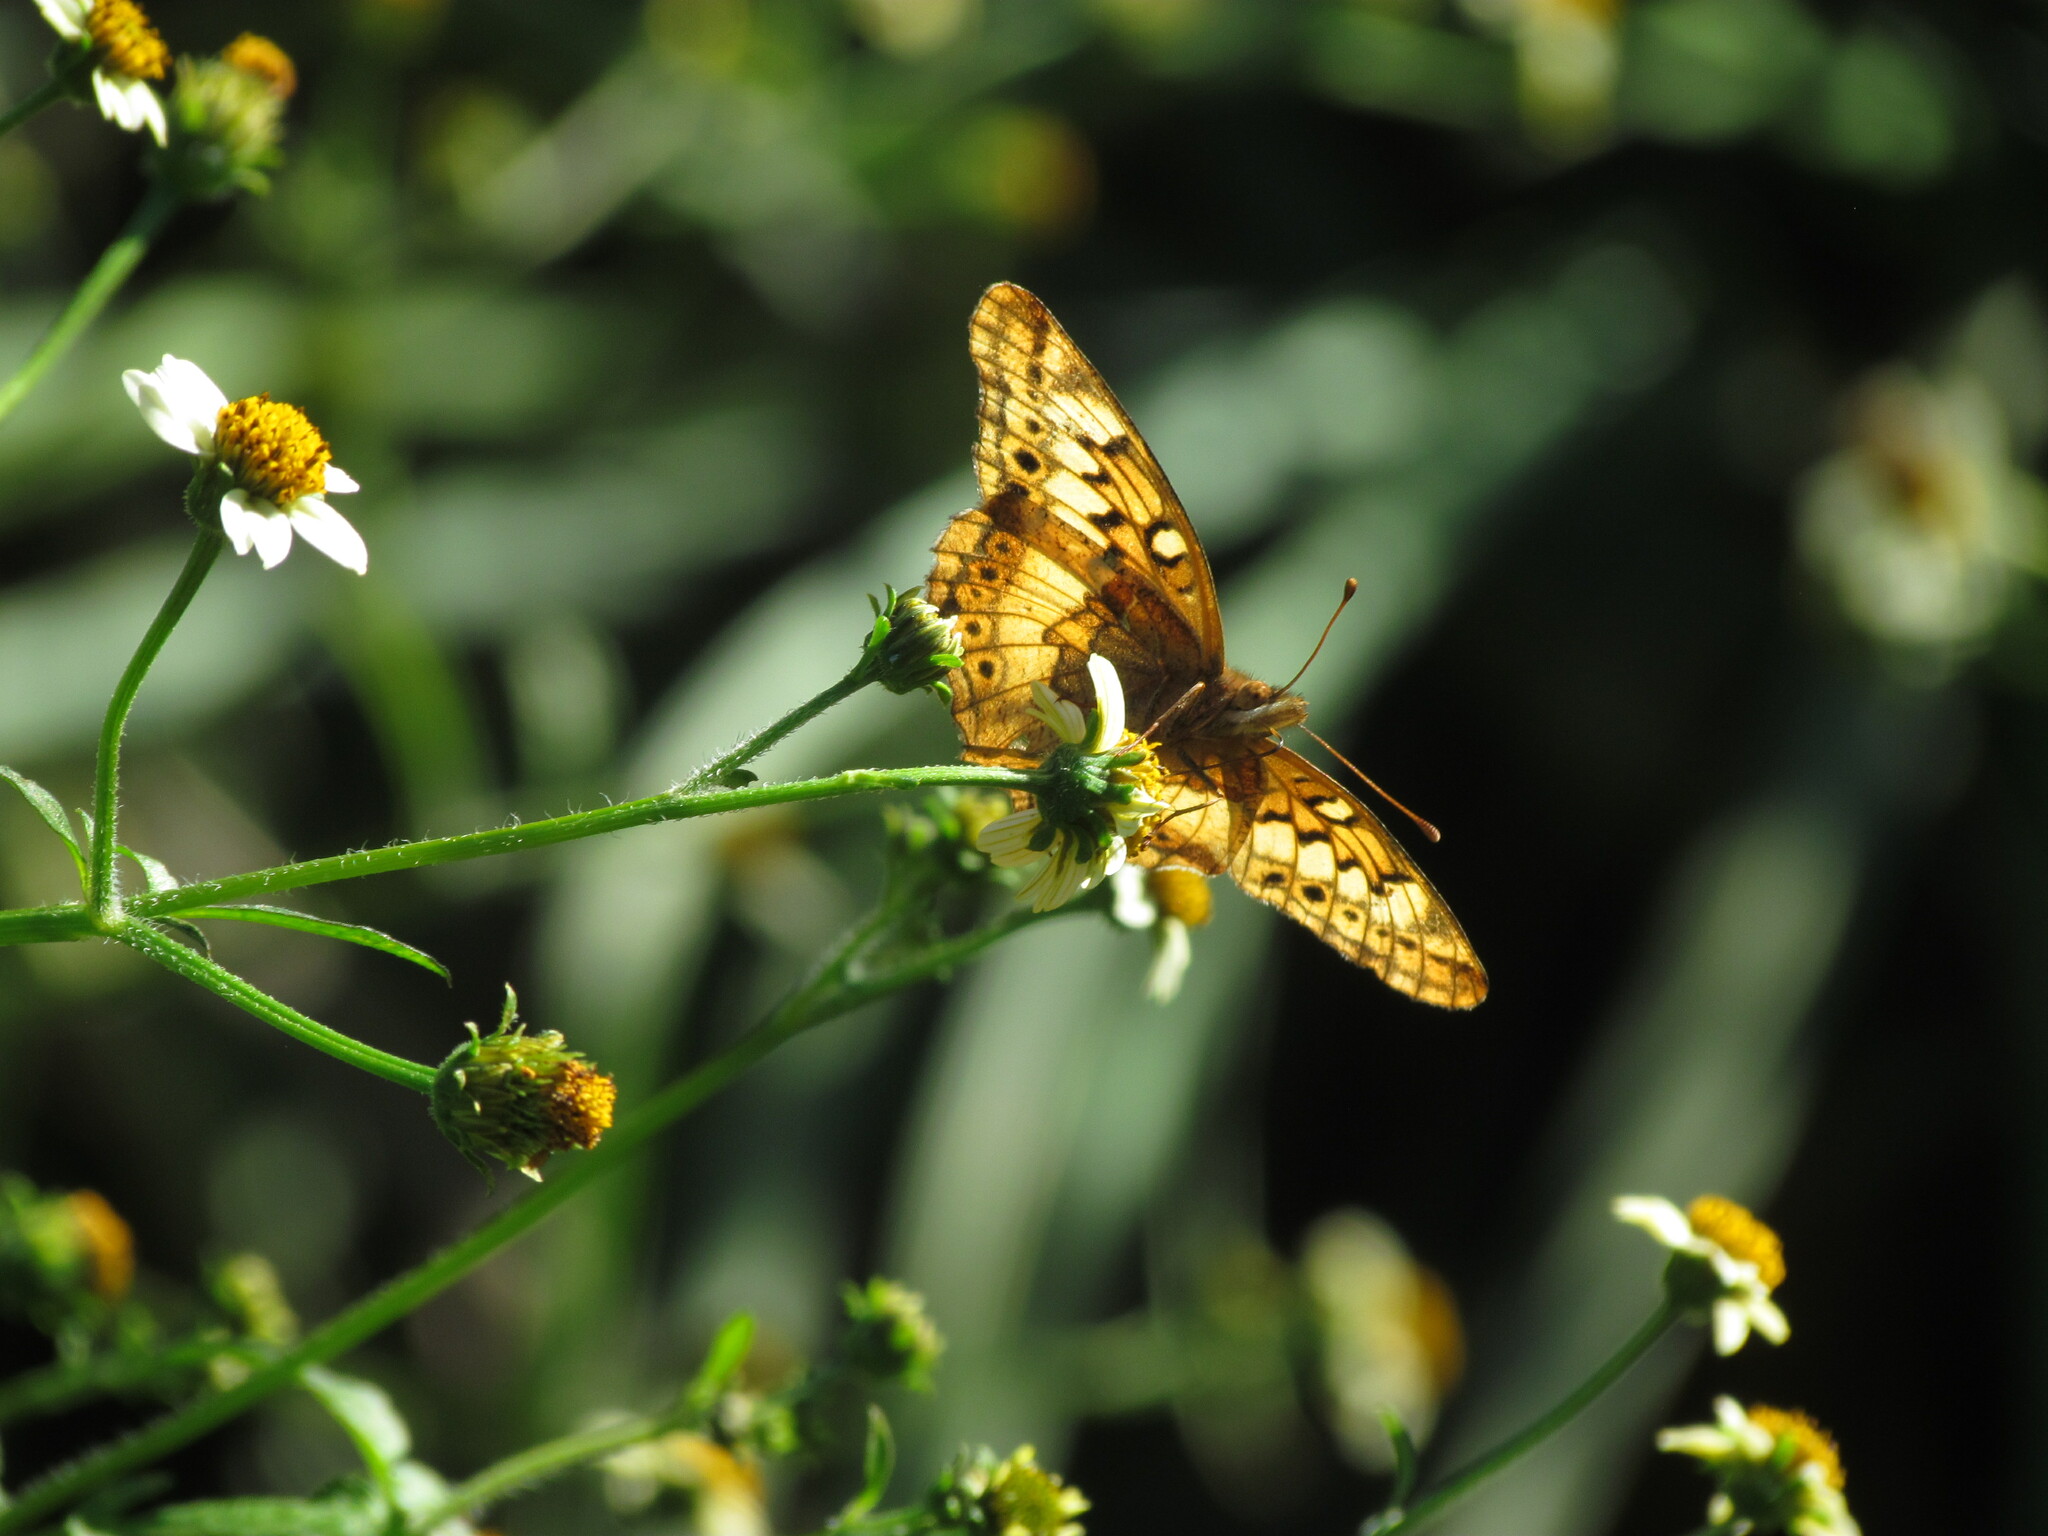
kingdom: Animalia
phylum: Arthropoda
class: Insecta
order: Lepidoptera
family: Nymphalidae
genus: Euptoieta
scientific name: Euptoieta hortensia
